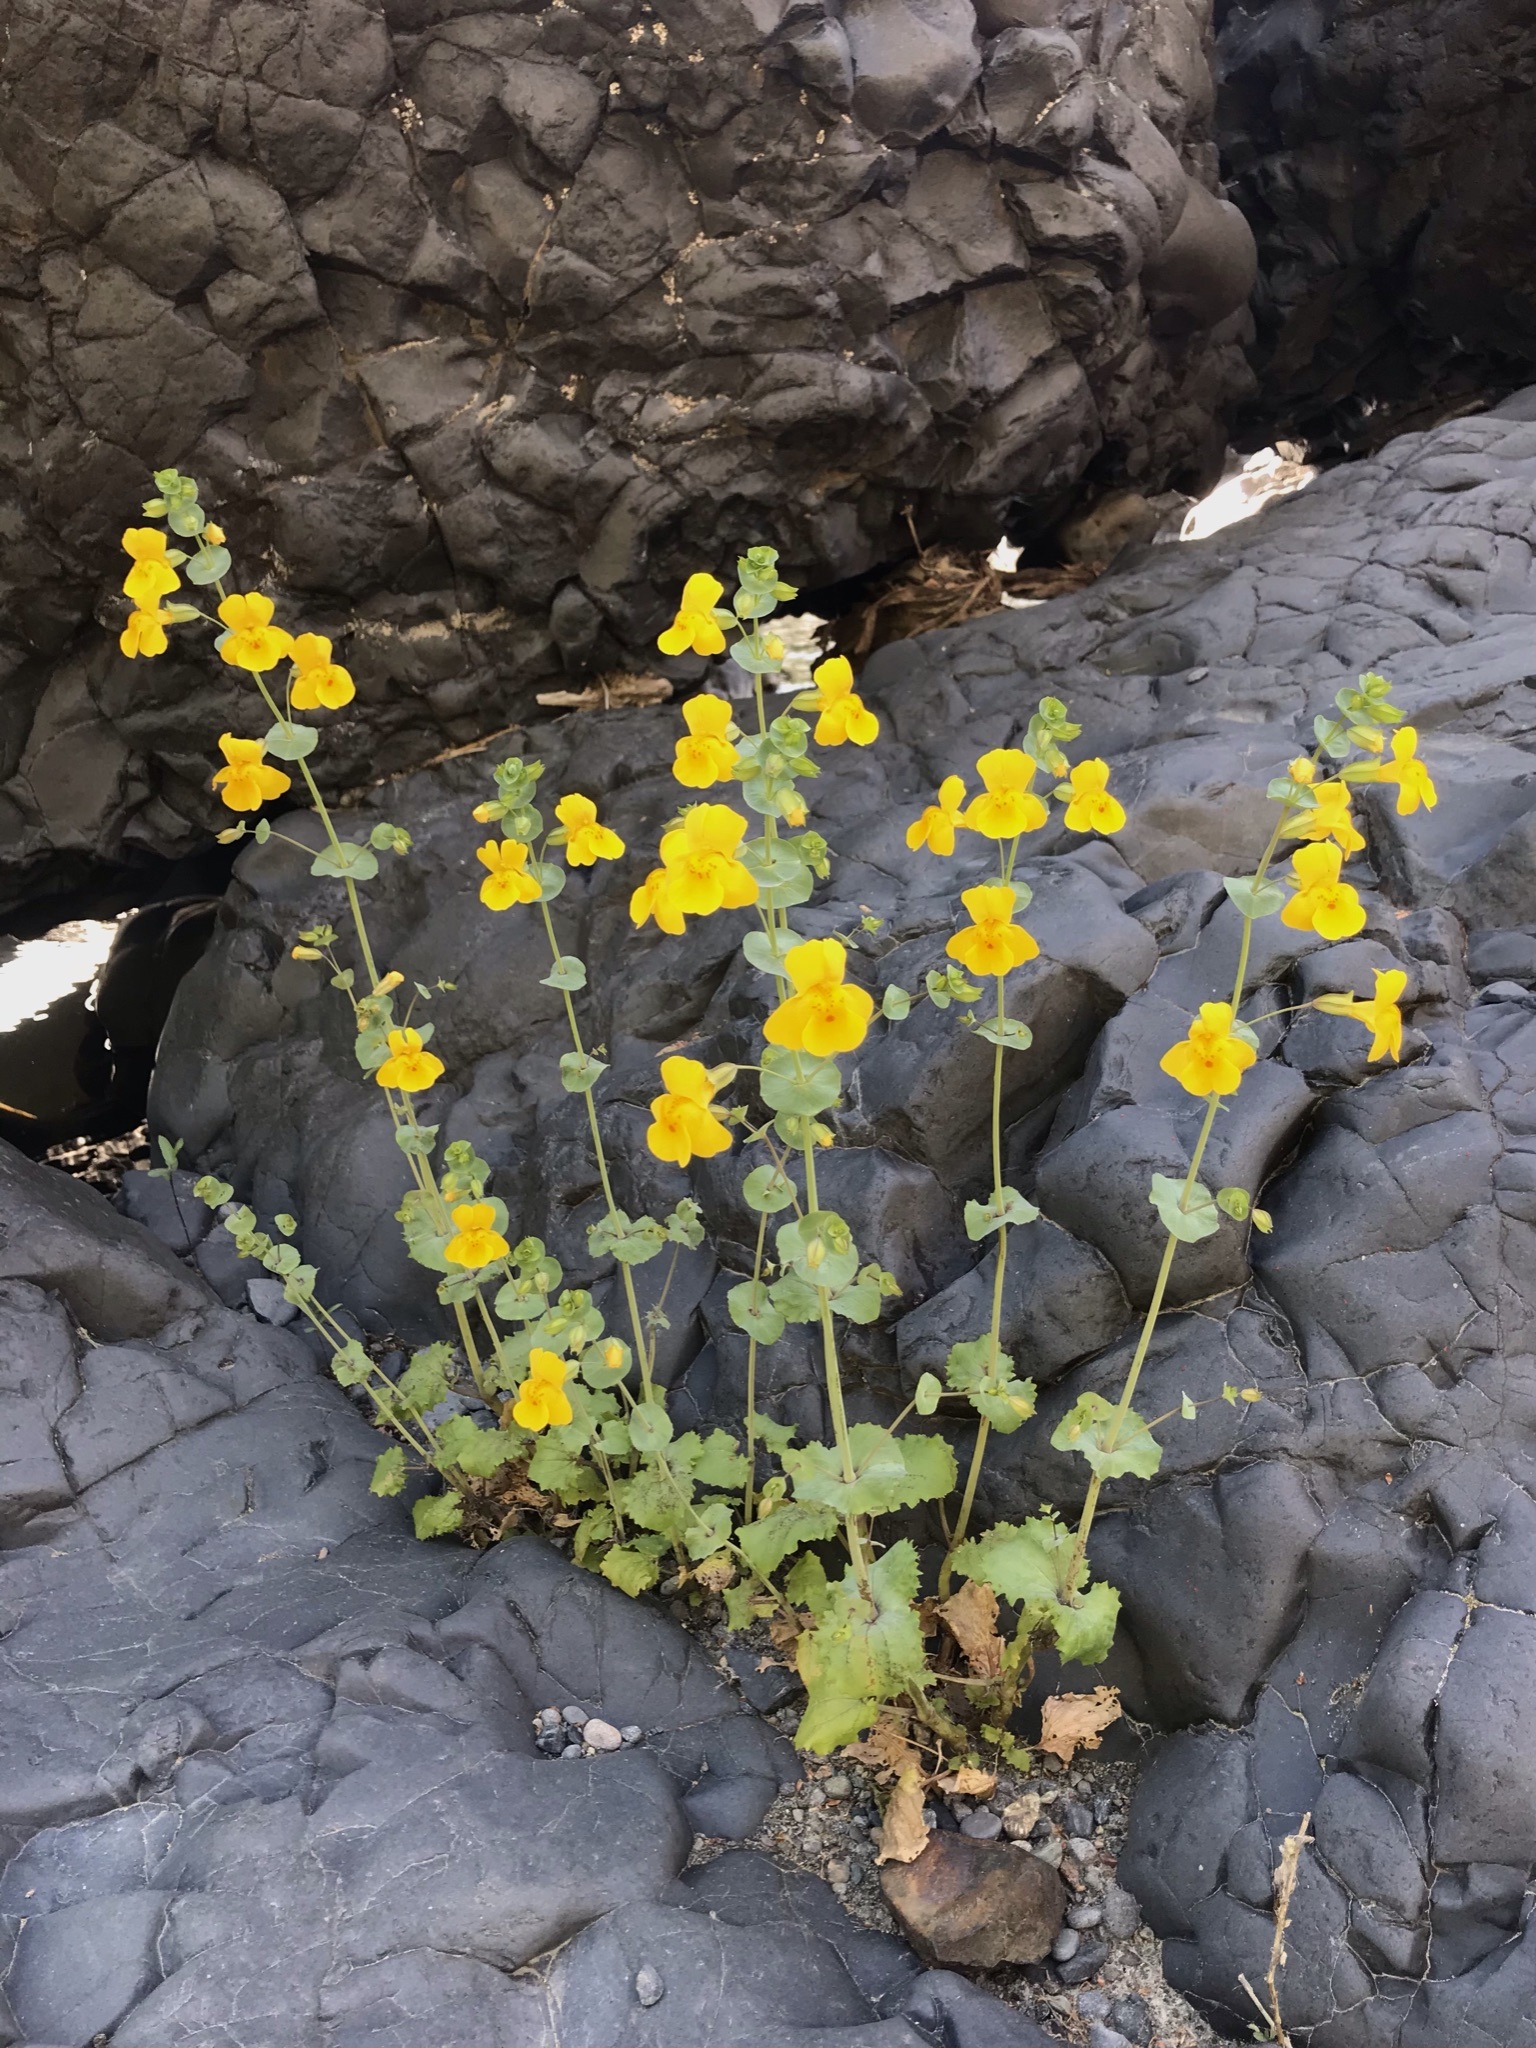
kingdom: Plantae
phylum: Tracheophyta
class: Magnoliopsida
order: Lamiales
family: Phrymaceae
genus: Erythranthe
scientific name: Erythranthe glaucescens
